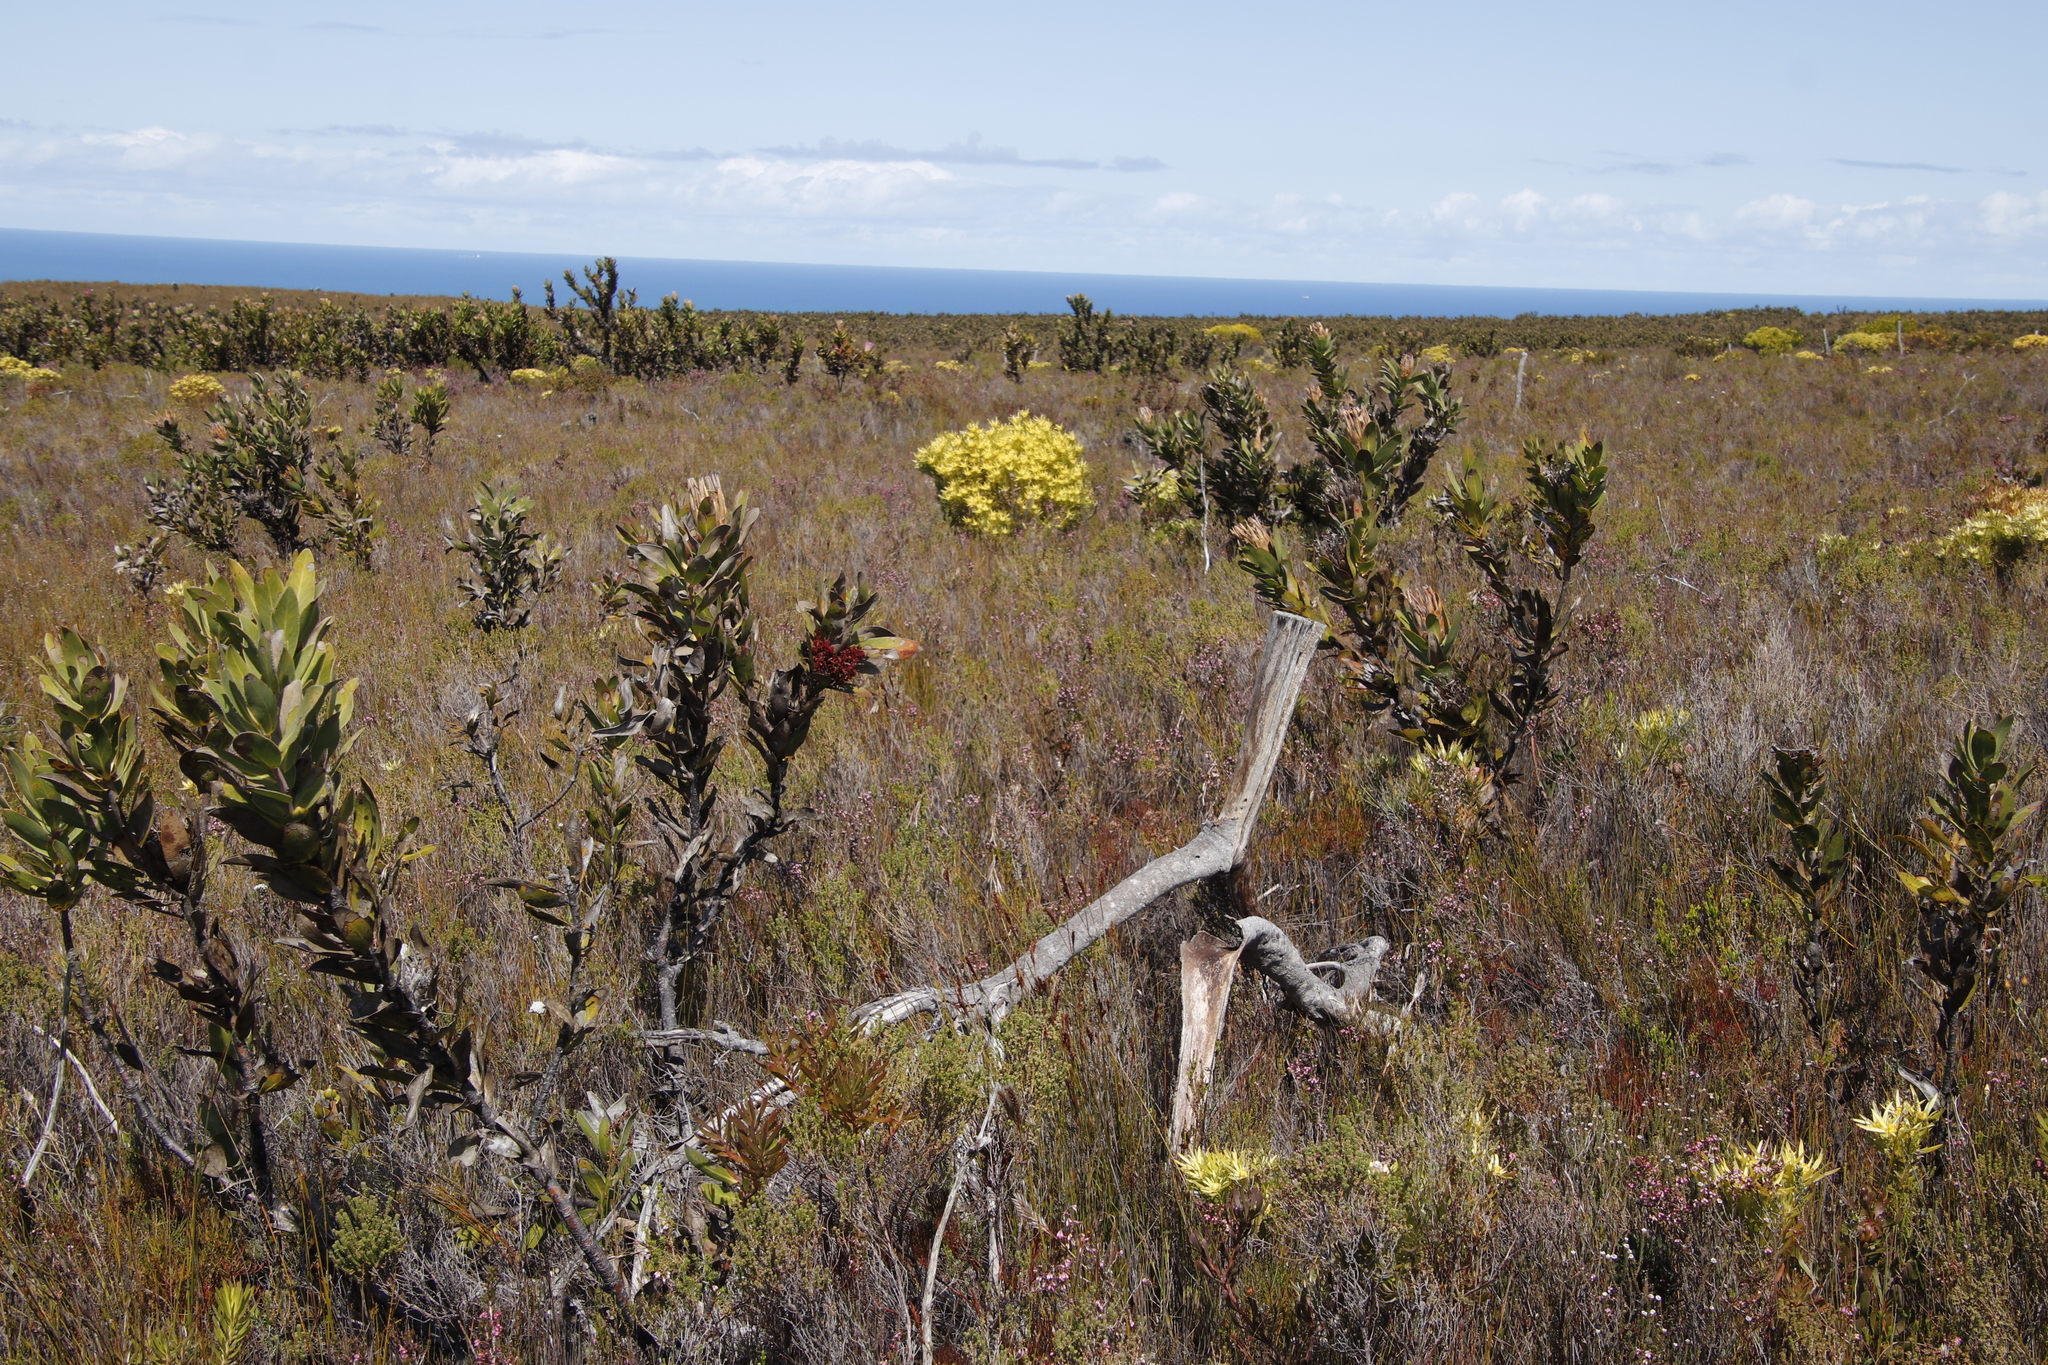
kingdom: Plantae
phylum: Tracheophyta
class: Magnoliopsida
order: Proteales
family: Proteaceae
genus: Protea
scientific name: Protea compacta
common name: Bot river protea
